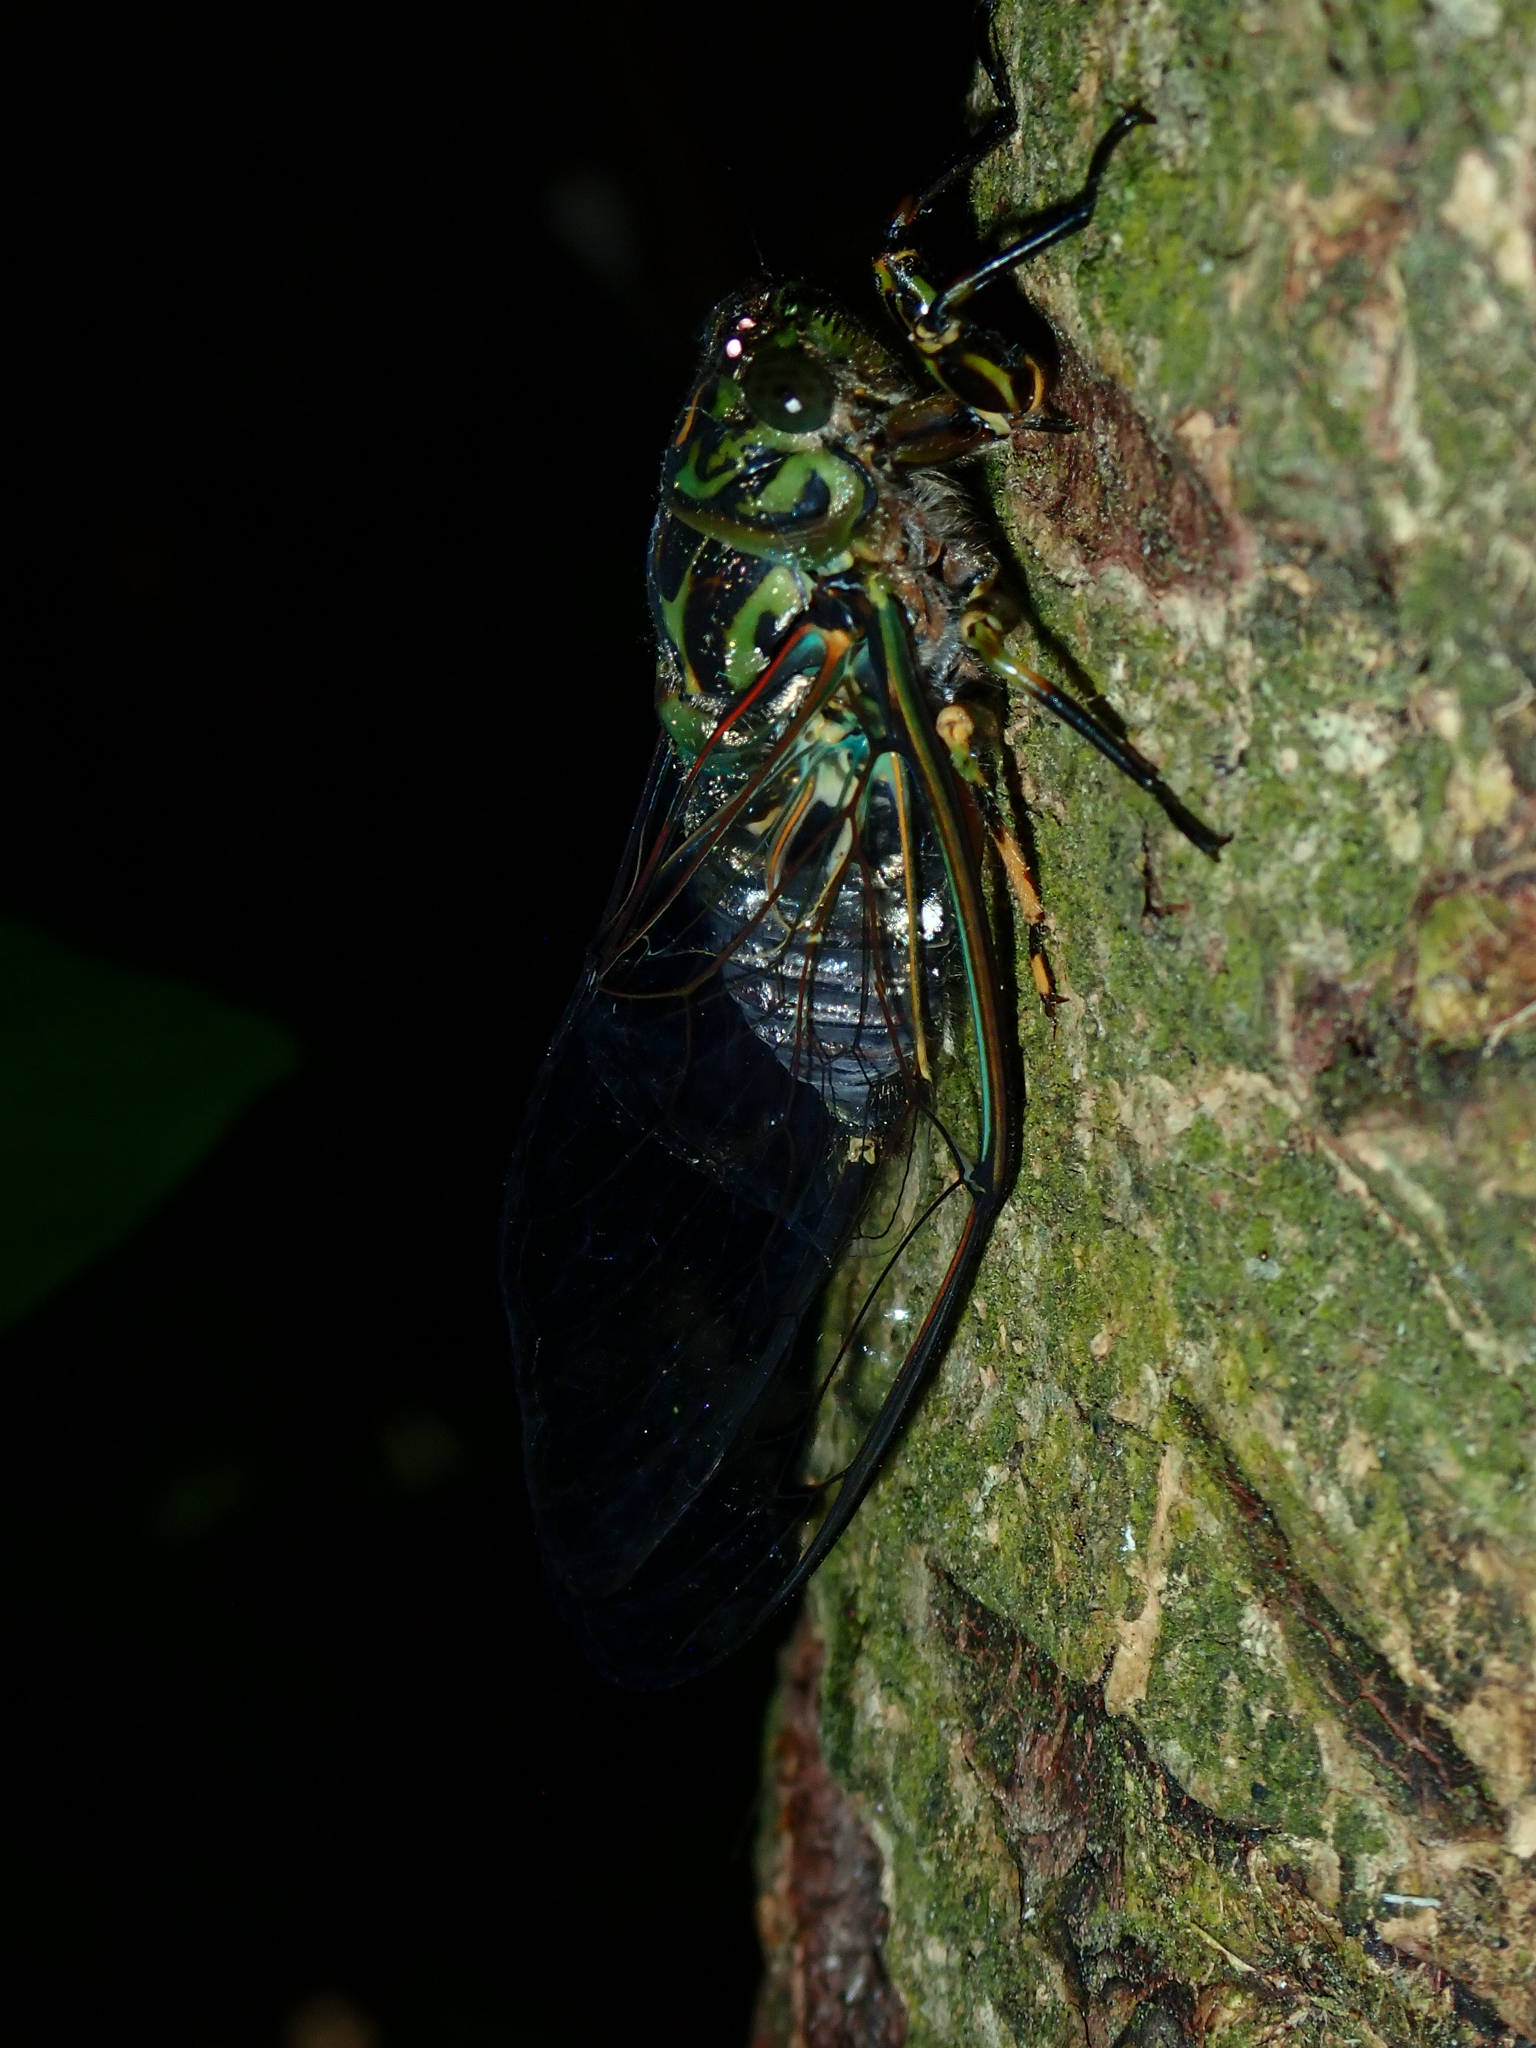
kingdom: Animalia
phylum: Arthropoda
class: Insecta
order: Hemiptera
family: Cicadidae
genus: Amphipsalta
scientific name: Amphipsalta zelandica
